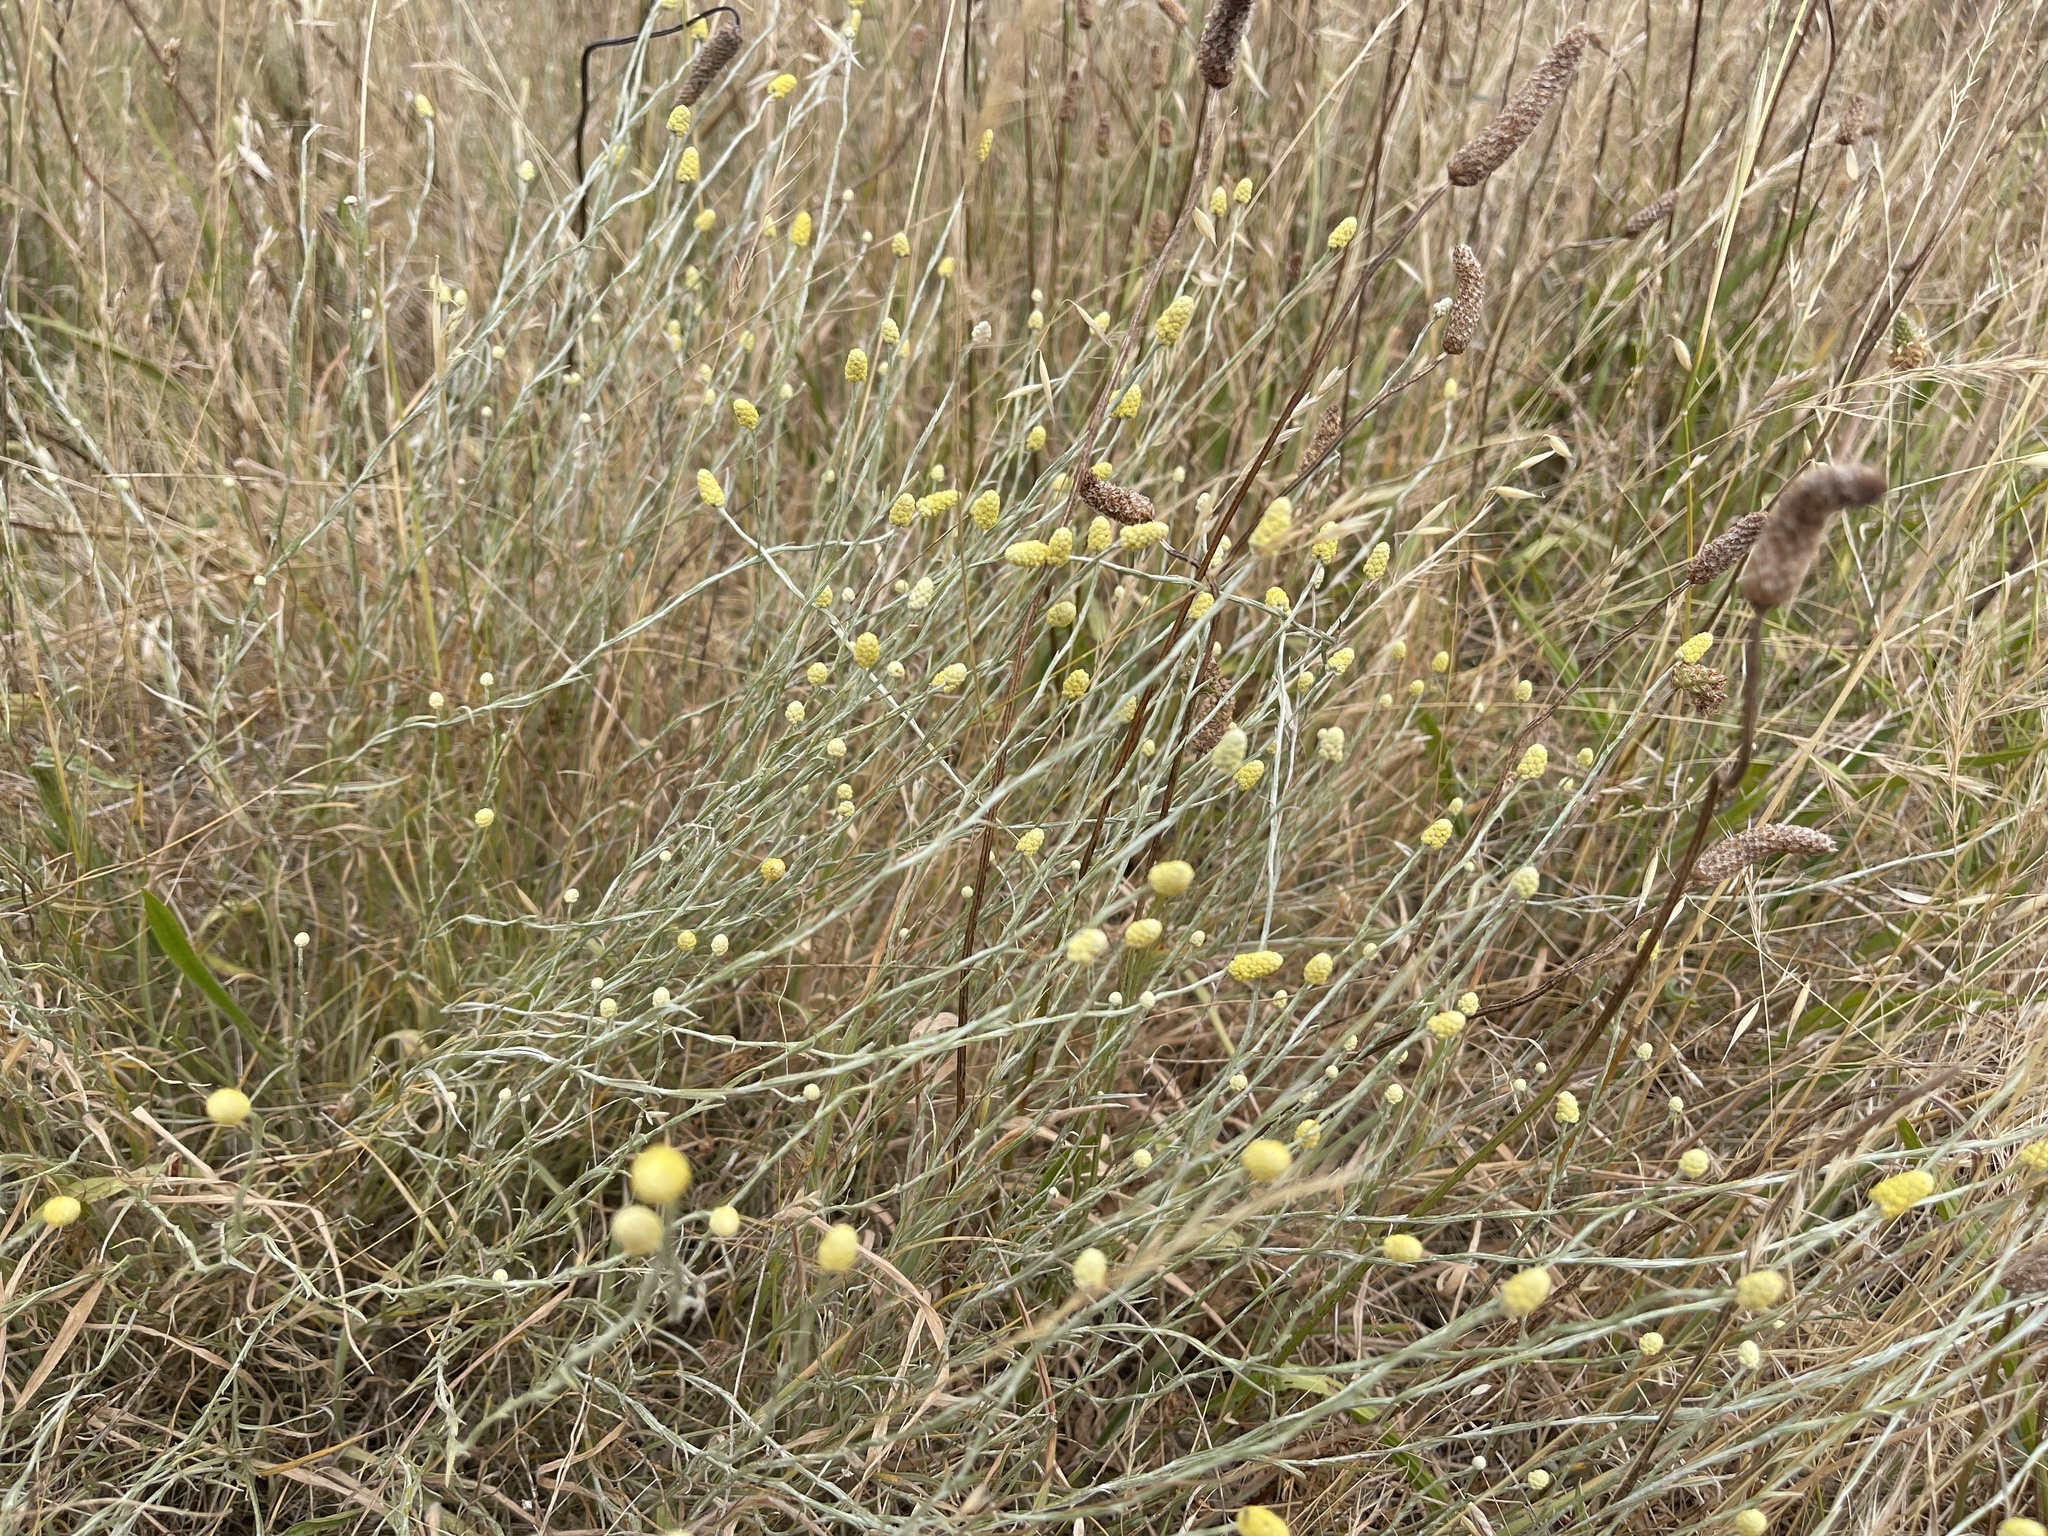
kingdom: Plantae
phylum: Tracheophyta
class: Magnoliopsida
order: Asterales
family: Asteraceae
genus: Calocephalus
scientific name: Calocephalus citreus
